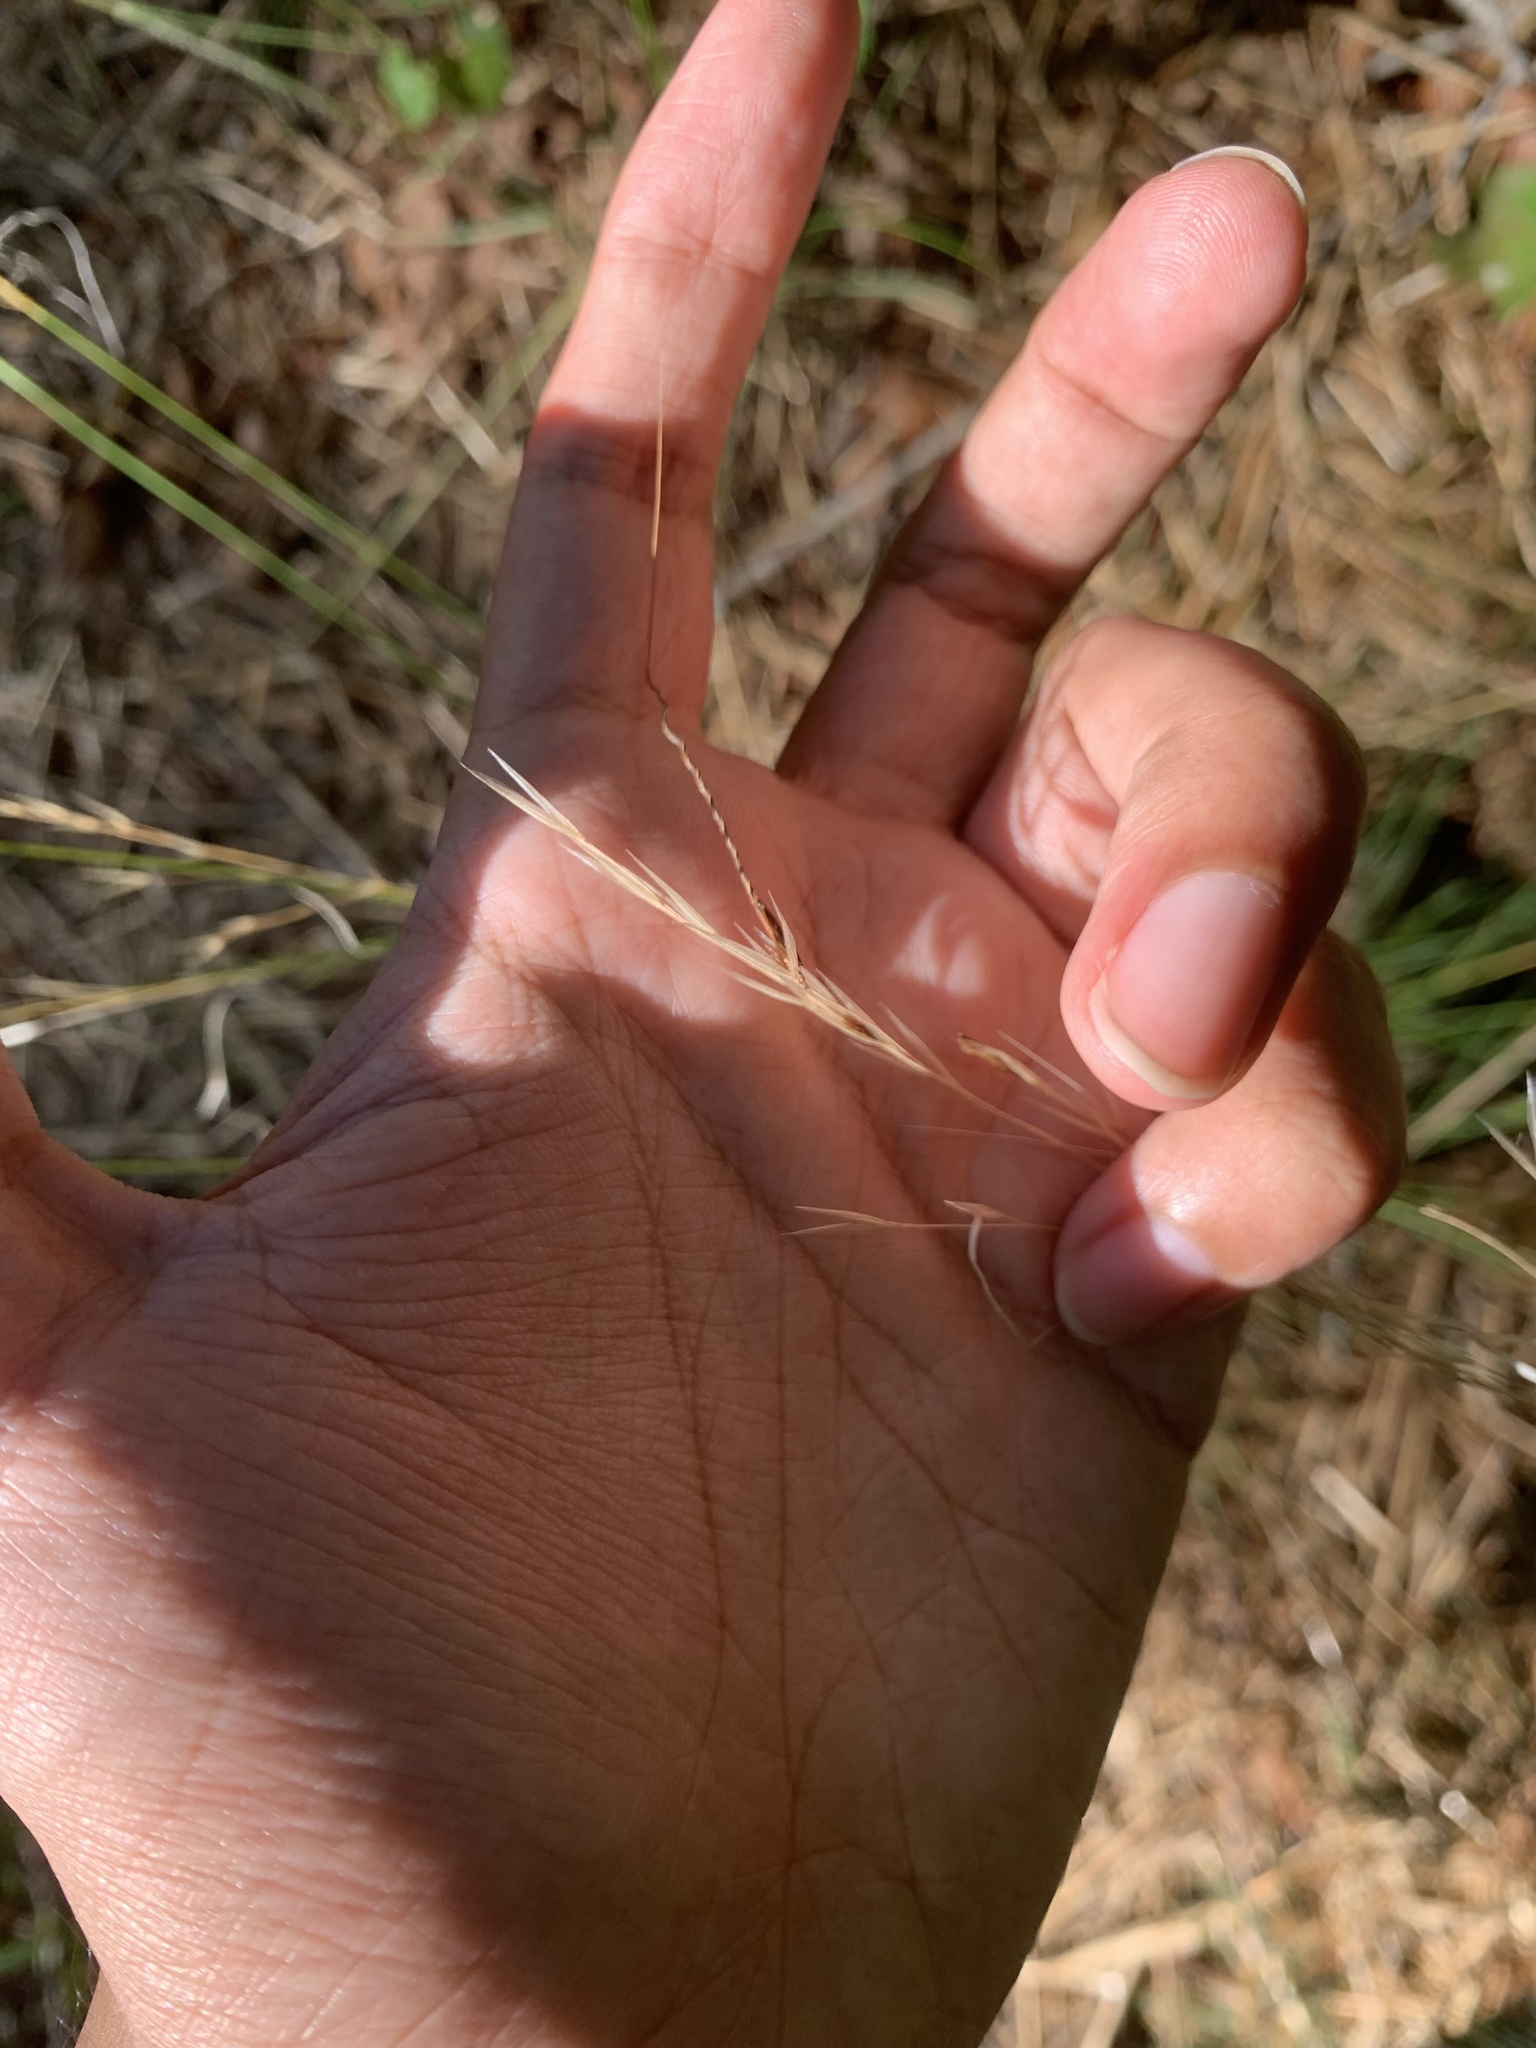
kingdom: Plantae
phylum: Tracheophyta
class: Liliopsida
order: Poales
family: Poaceae
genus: Piptochaetium
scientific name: Piptochaetium avenaceum
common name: Black bunchgrass
